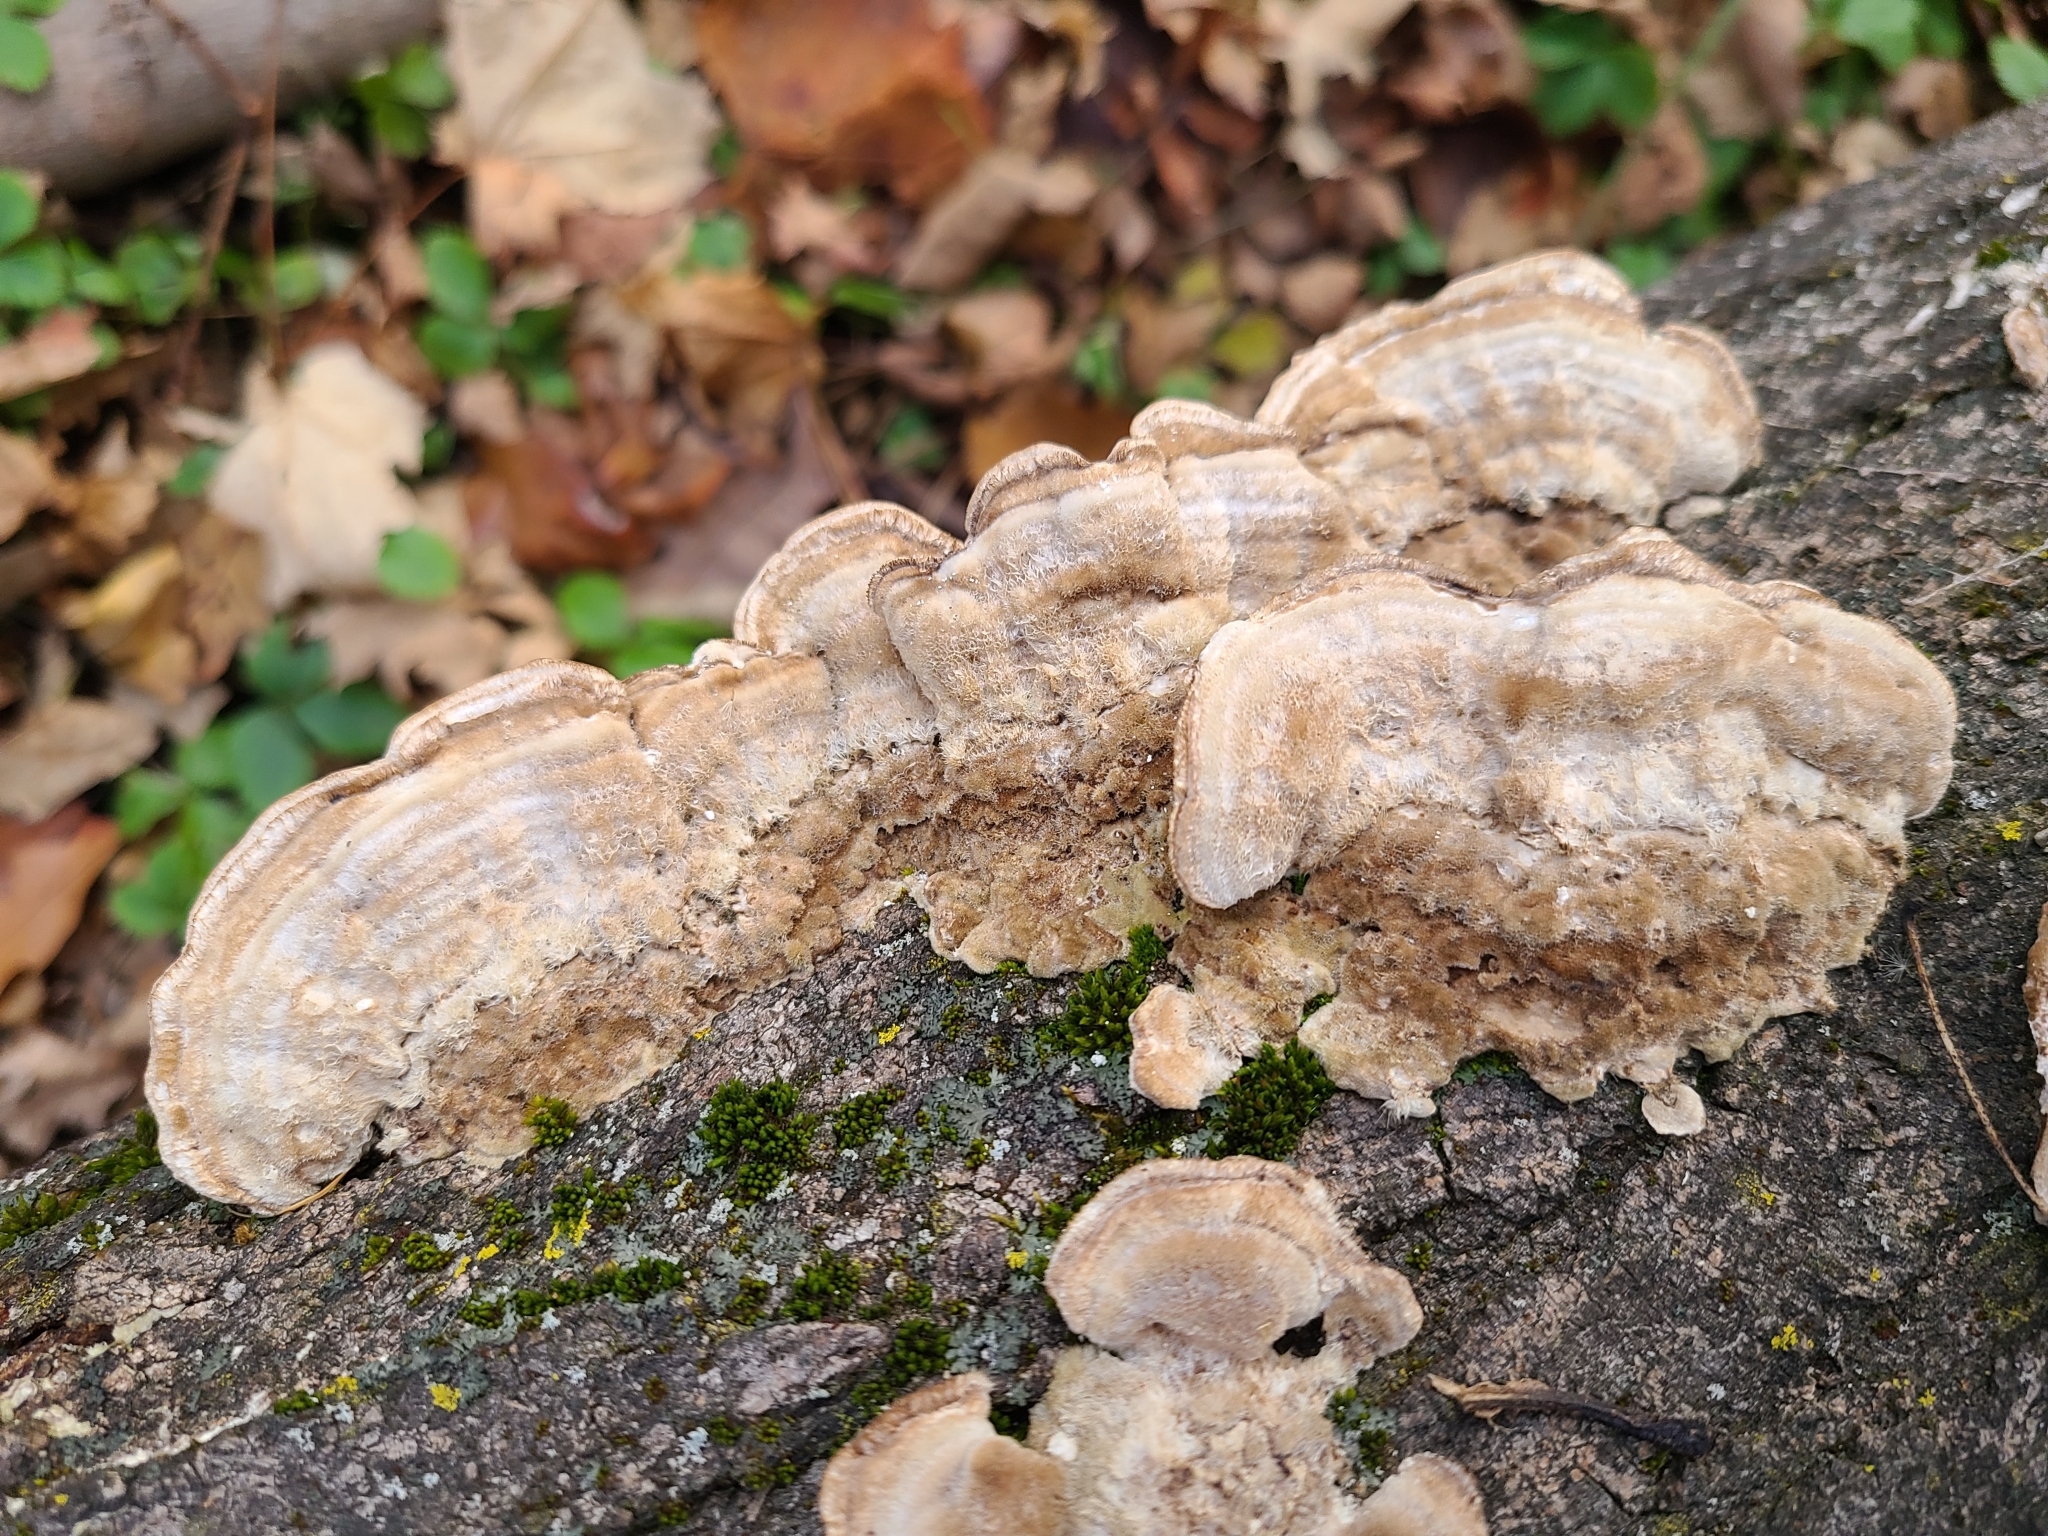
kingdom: Fungi
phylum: Basidiomycota
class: Agaricomycetes
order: Polyporales
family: Polyporaceae
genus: Trametes
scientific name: Trametes ochracea
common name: Ochre bracket
